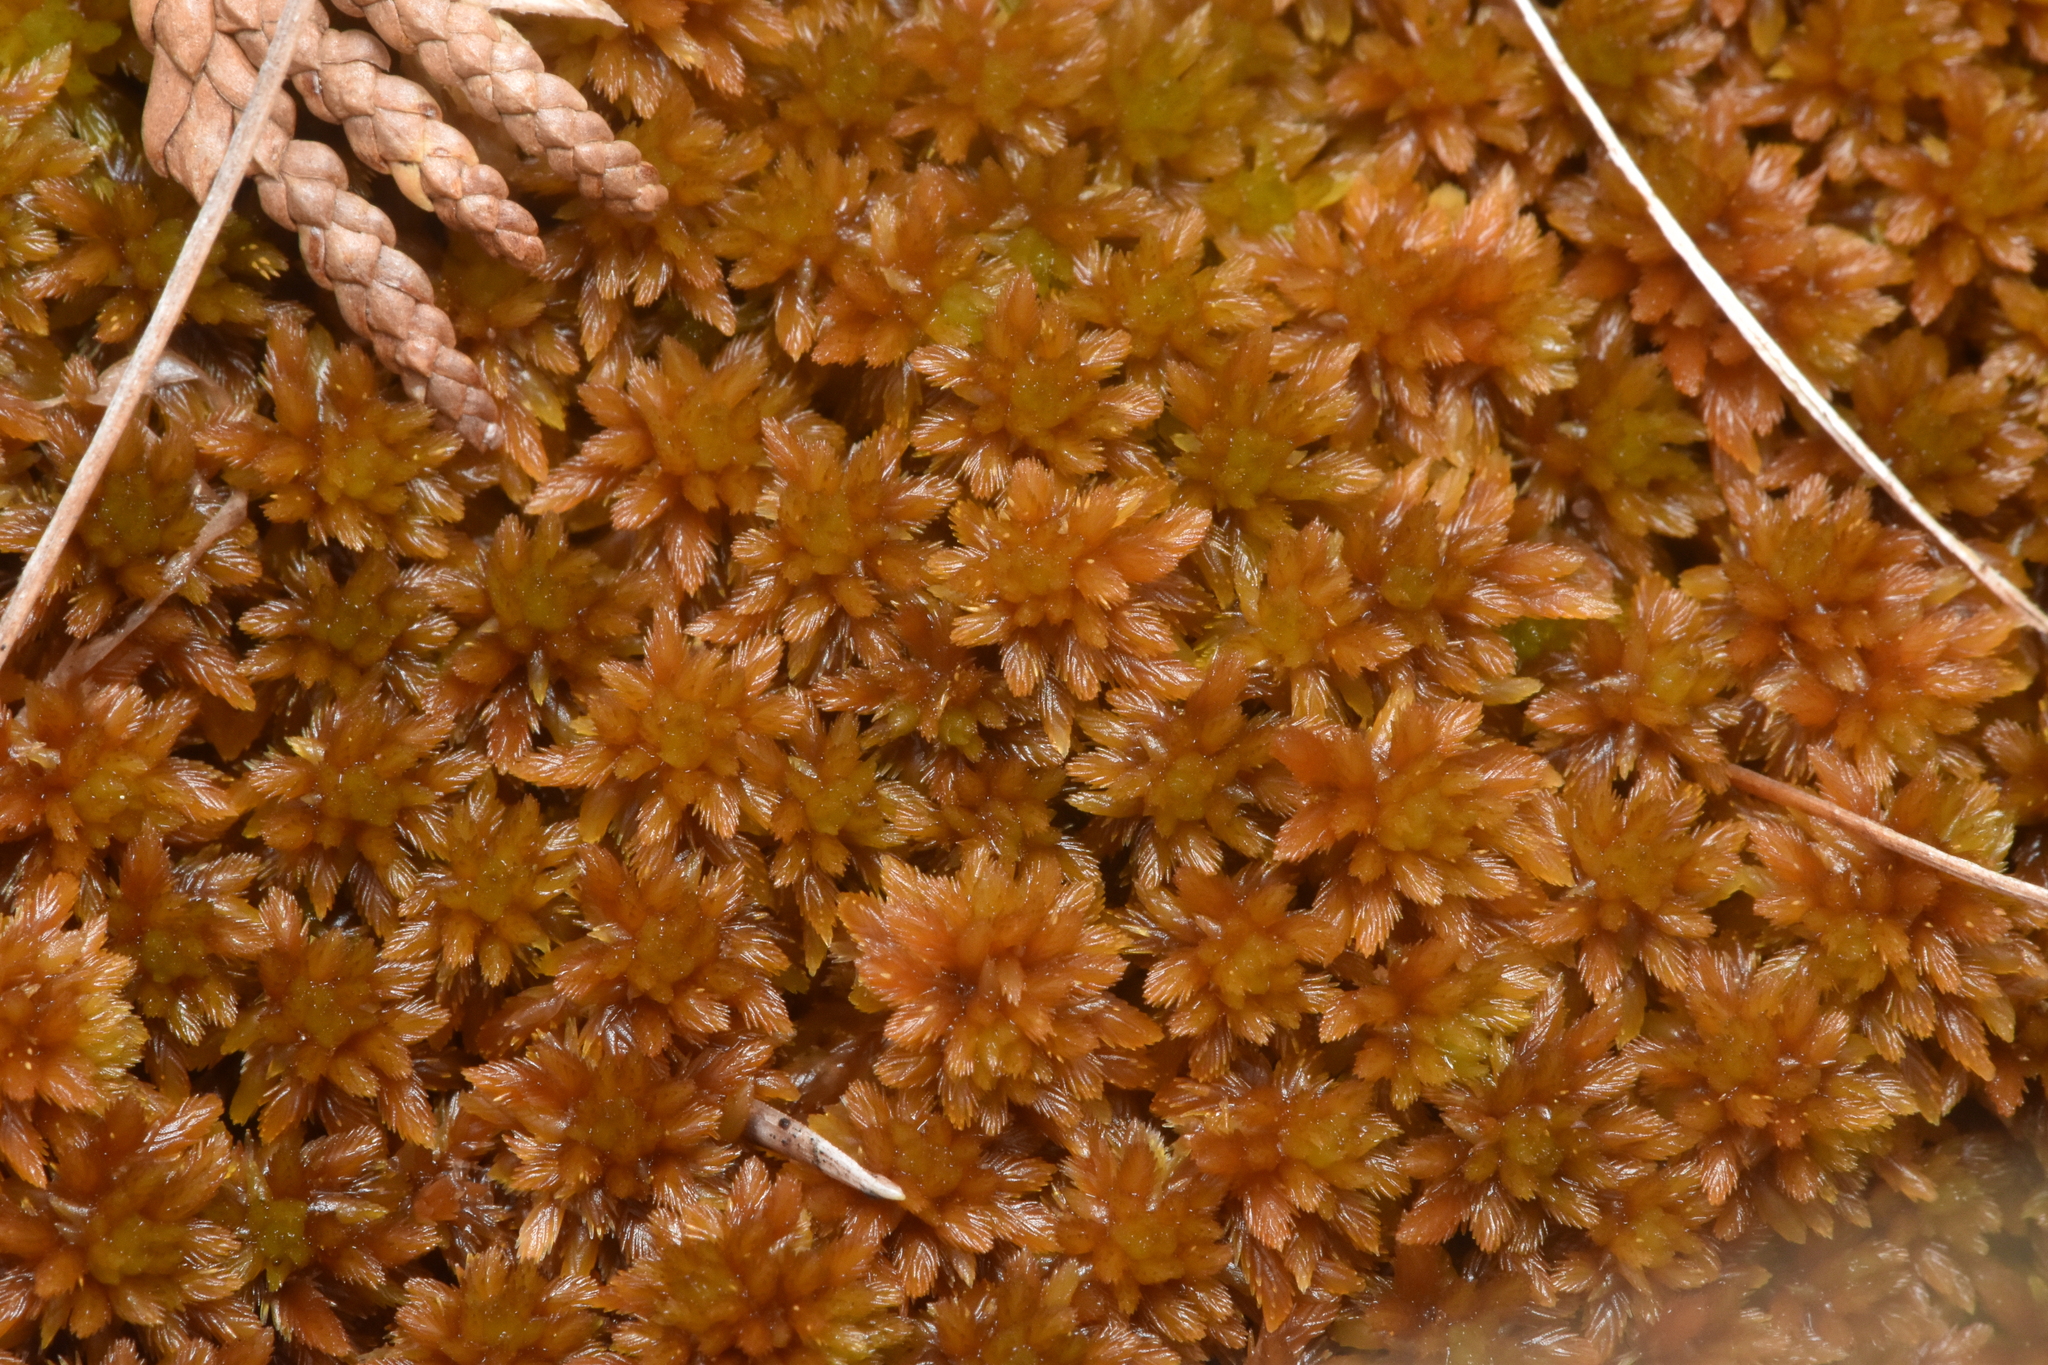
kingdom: Plantae
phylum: Bryophyta
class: Sphagnopsida
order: Sphagnales
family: Sphagnaceae
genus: Sphagnum
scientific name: Sphagnum fuscum
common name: Brown peat moss
